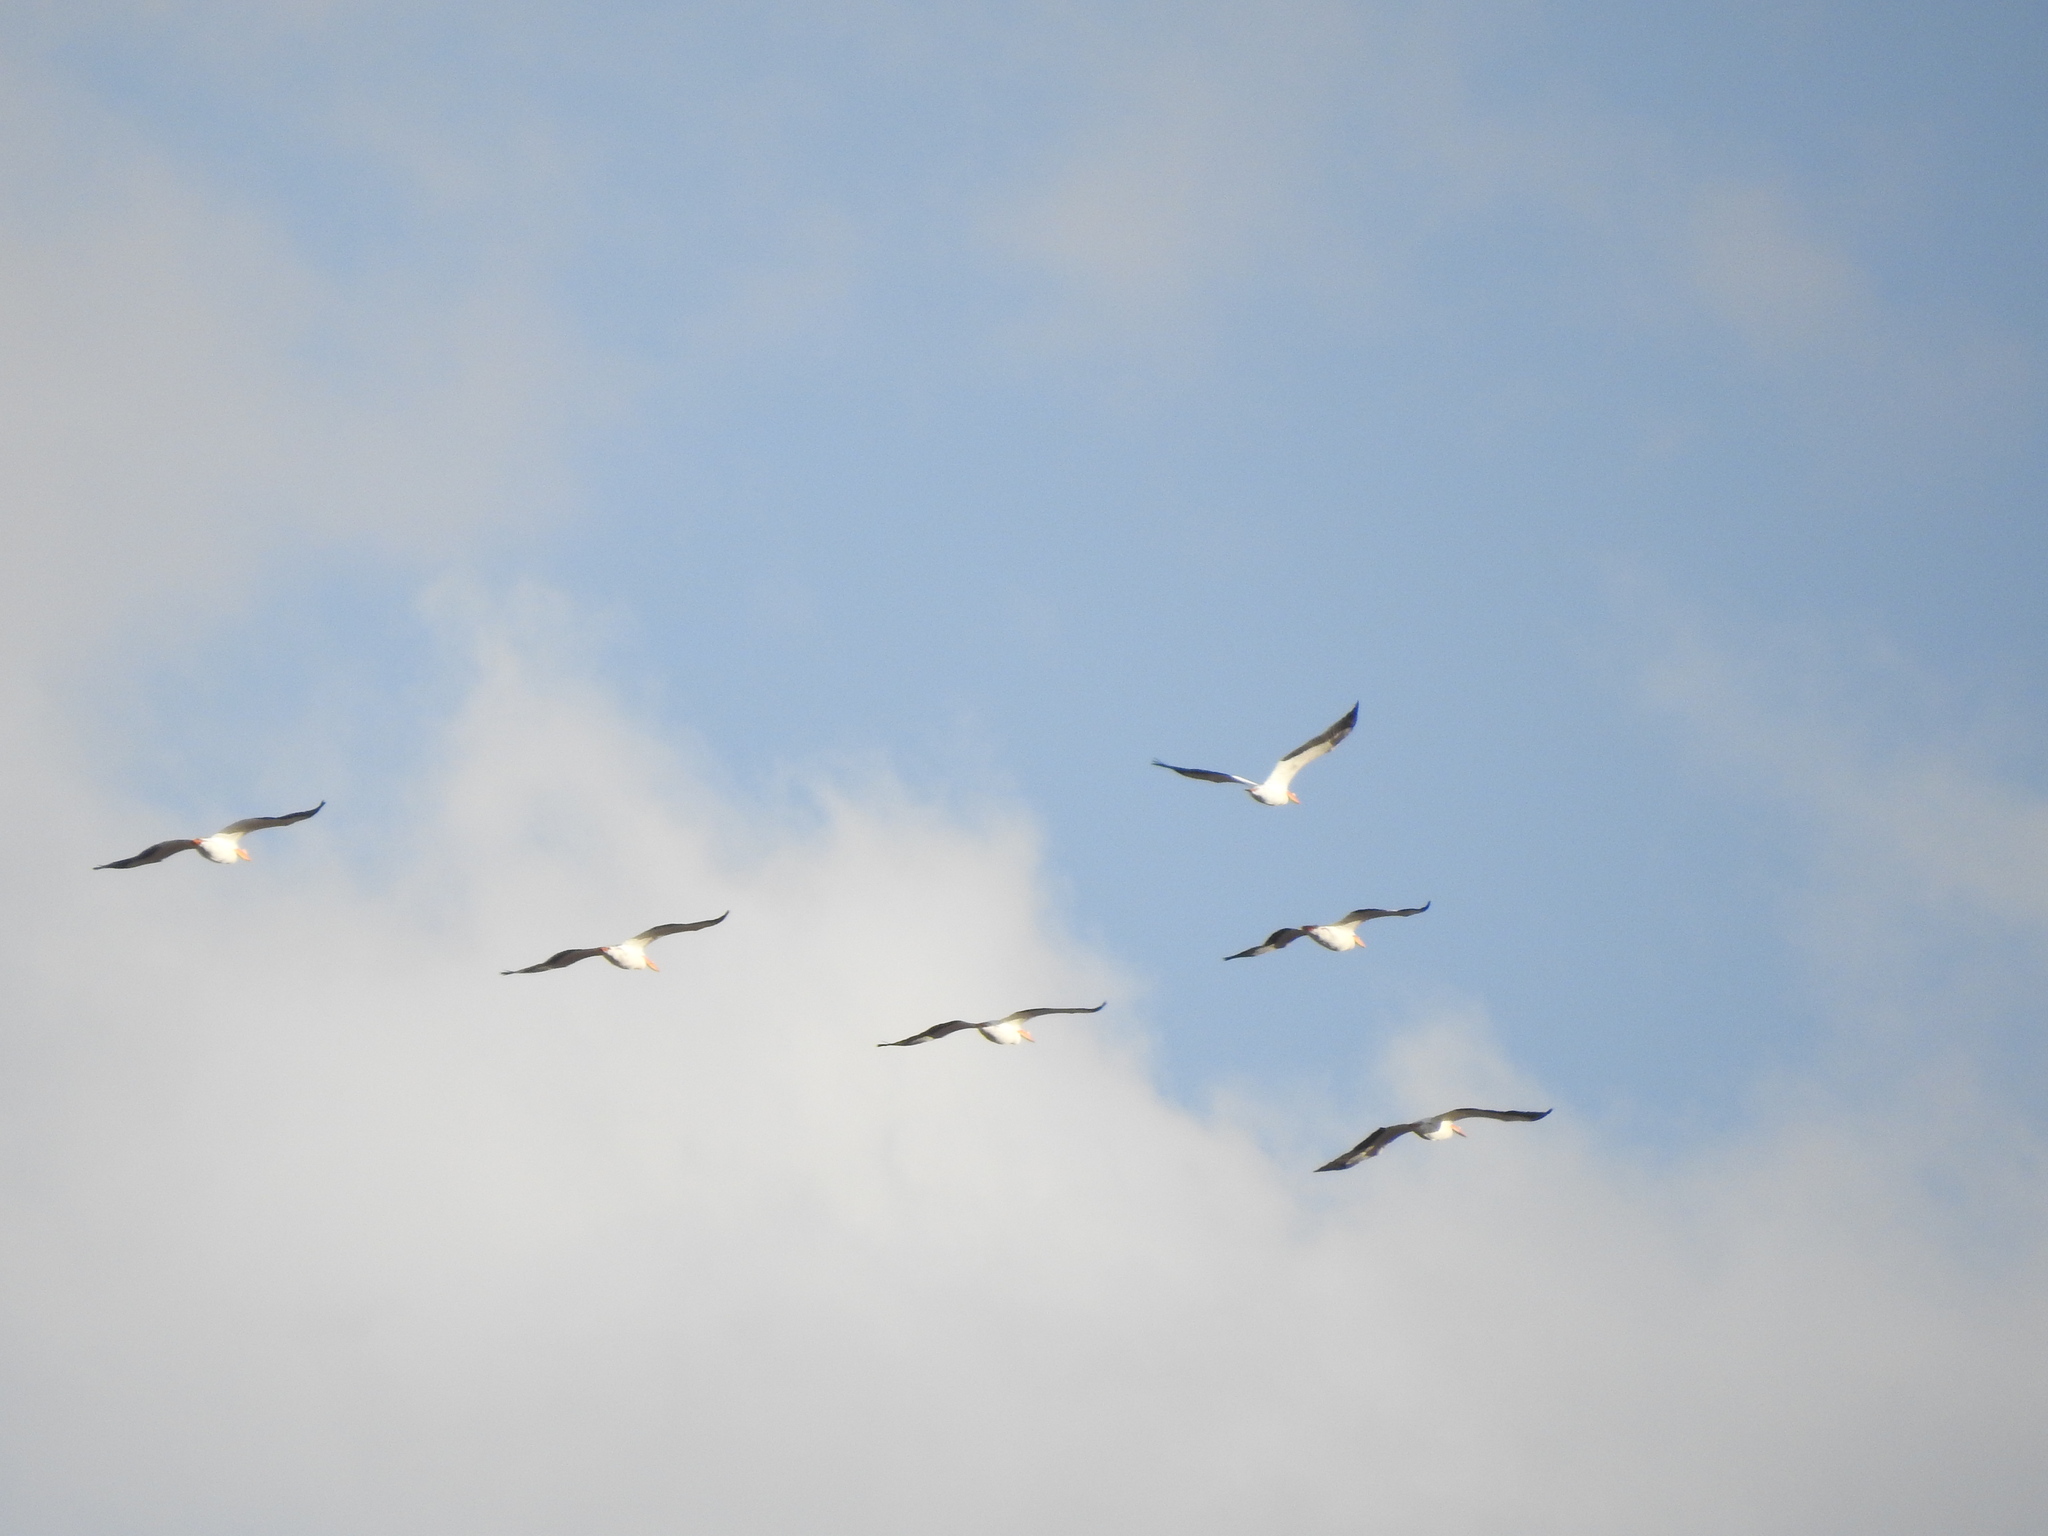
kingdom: Animalia
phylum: Chordata
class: Aves
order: Pelecaniformes
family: Pelecanidae
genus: Pelecanus
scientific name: Pelecanus erythrorhynchos
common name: American white pelican
